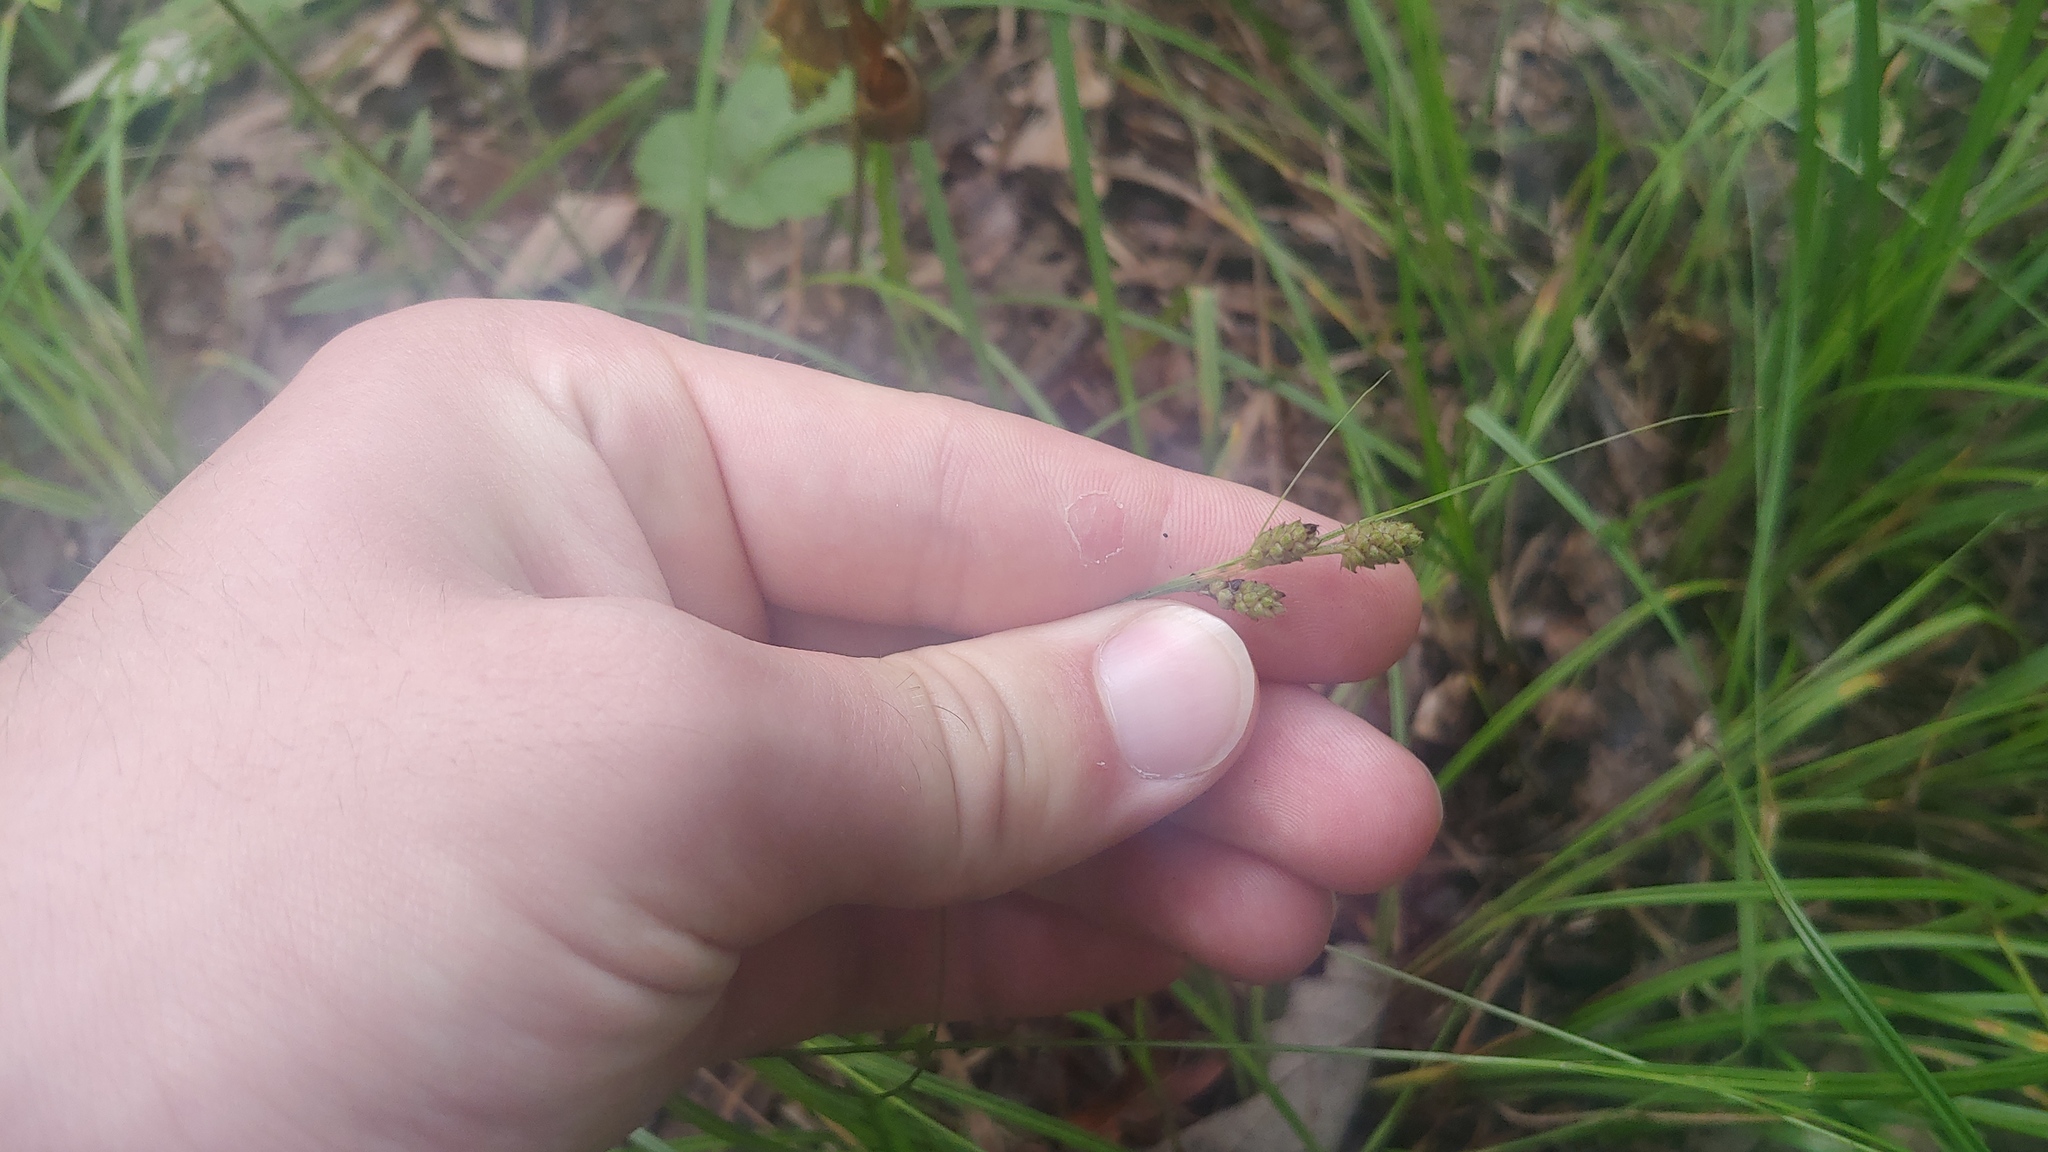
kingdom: Plantae
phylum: Tracheophyta
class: Liliopsida
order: Poales
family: Cyperaceae
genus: Carex
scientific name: Carex swanii
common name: Downy green sedge
